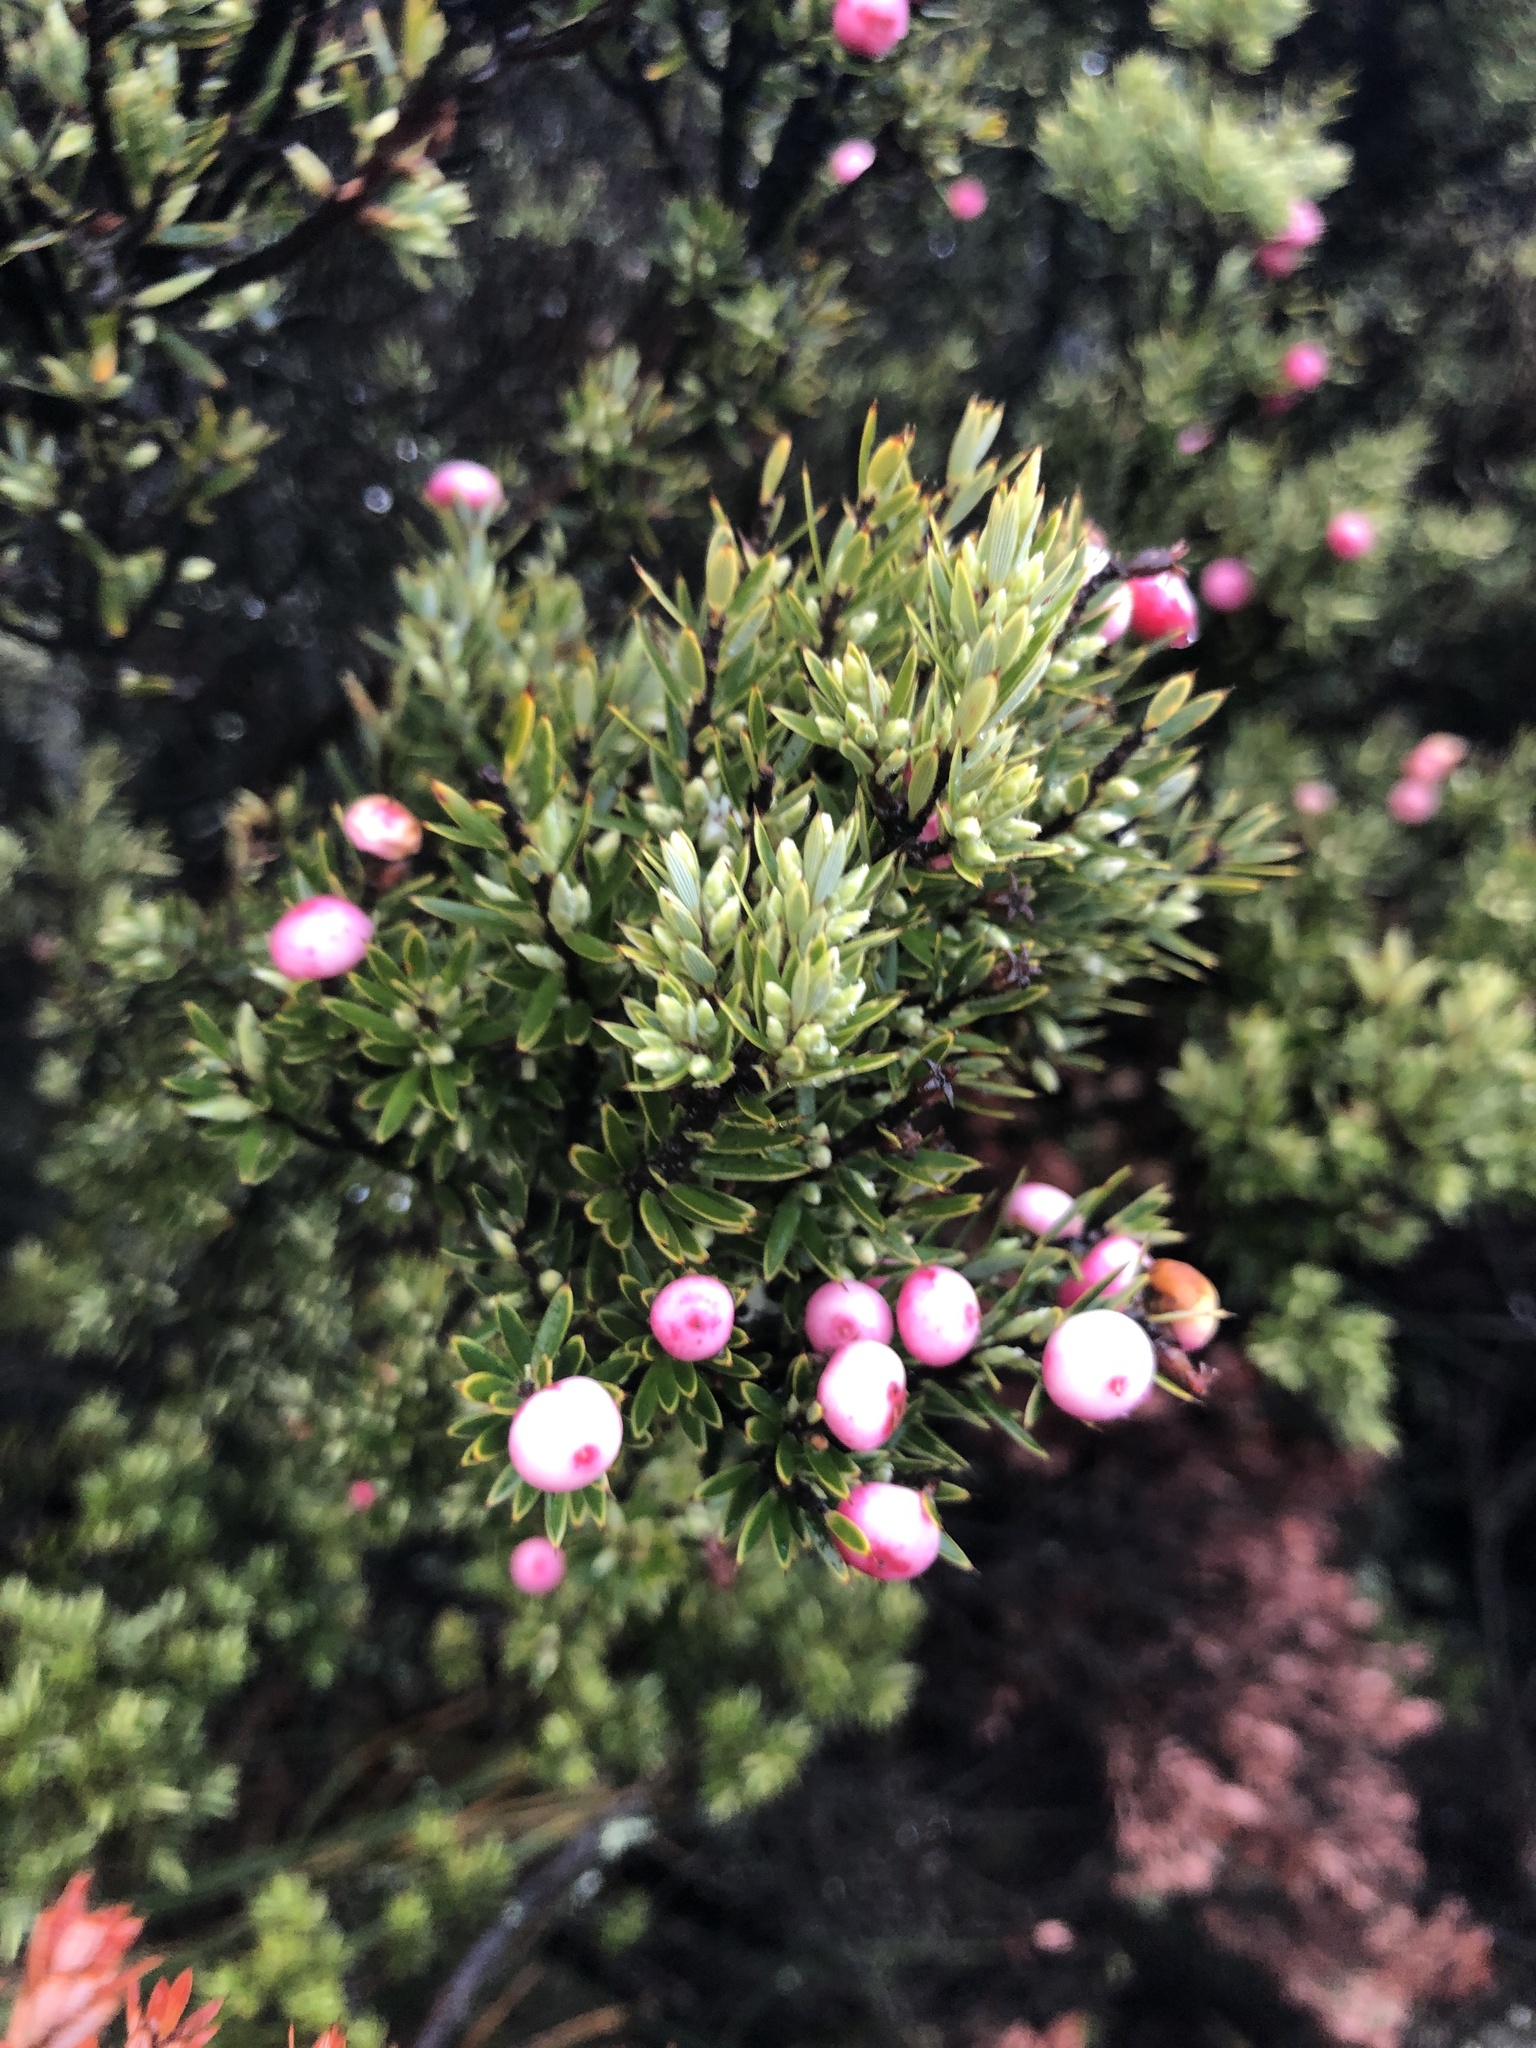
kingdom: Plantae
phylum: Tracheophyta
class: Magnoliopsida
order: Ericales
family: Ericaceae
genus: Leptecophylla
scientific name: Leptecophylla tameiameiae
